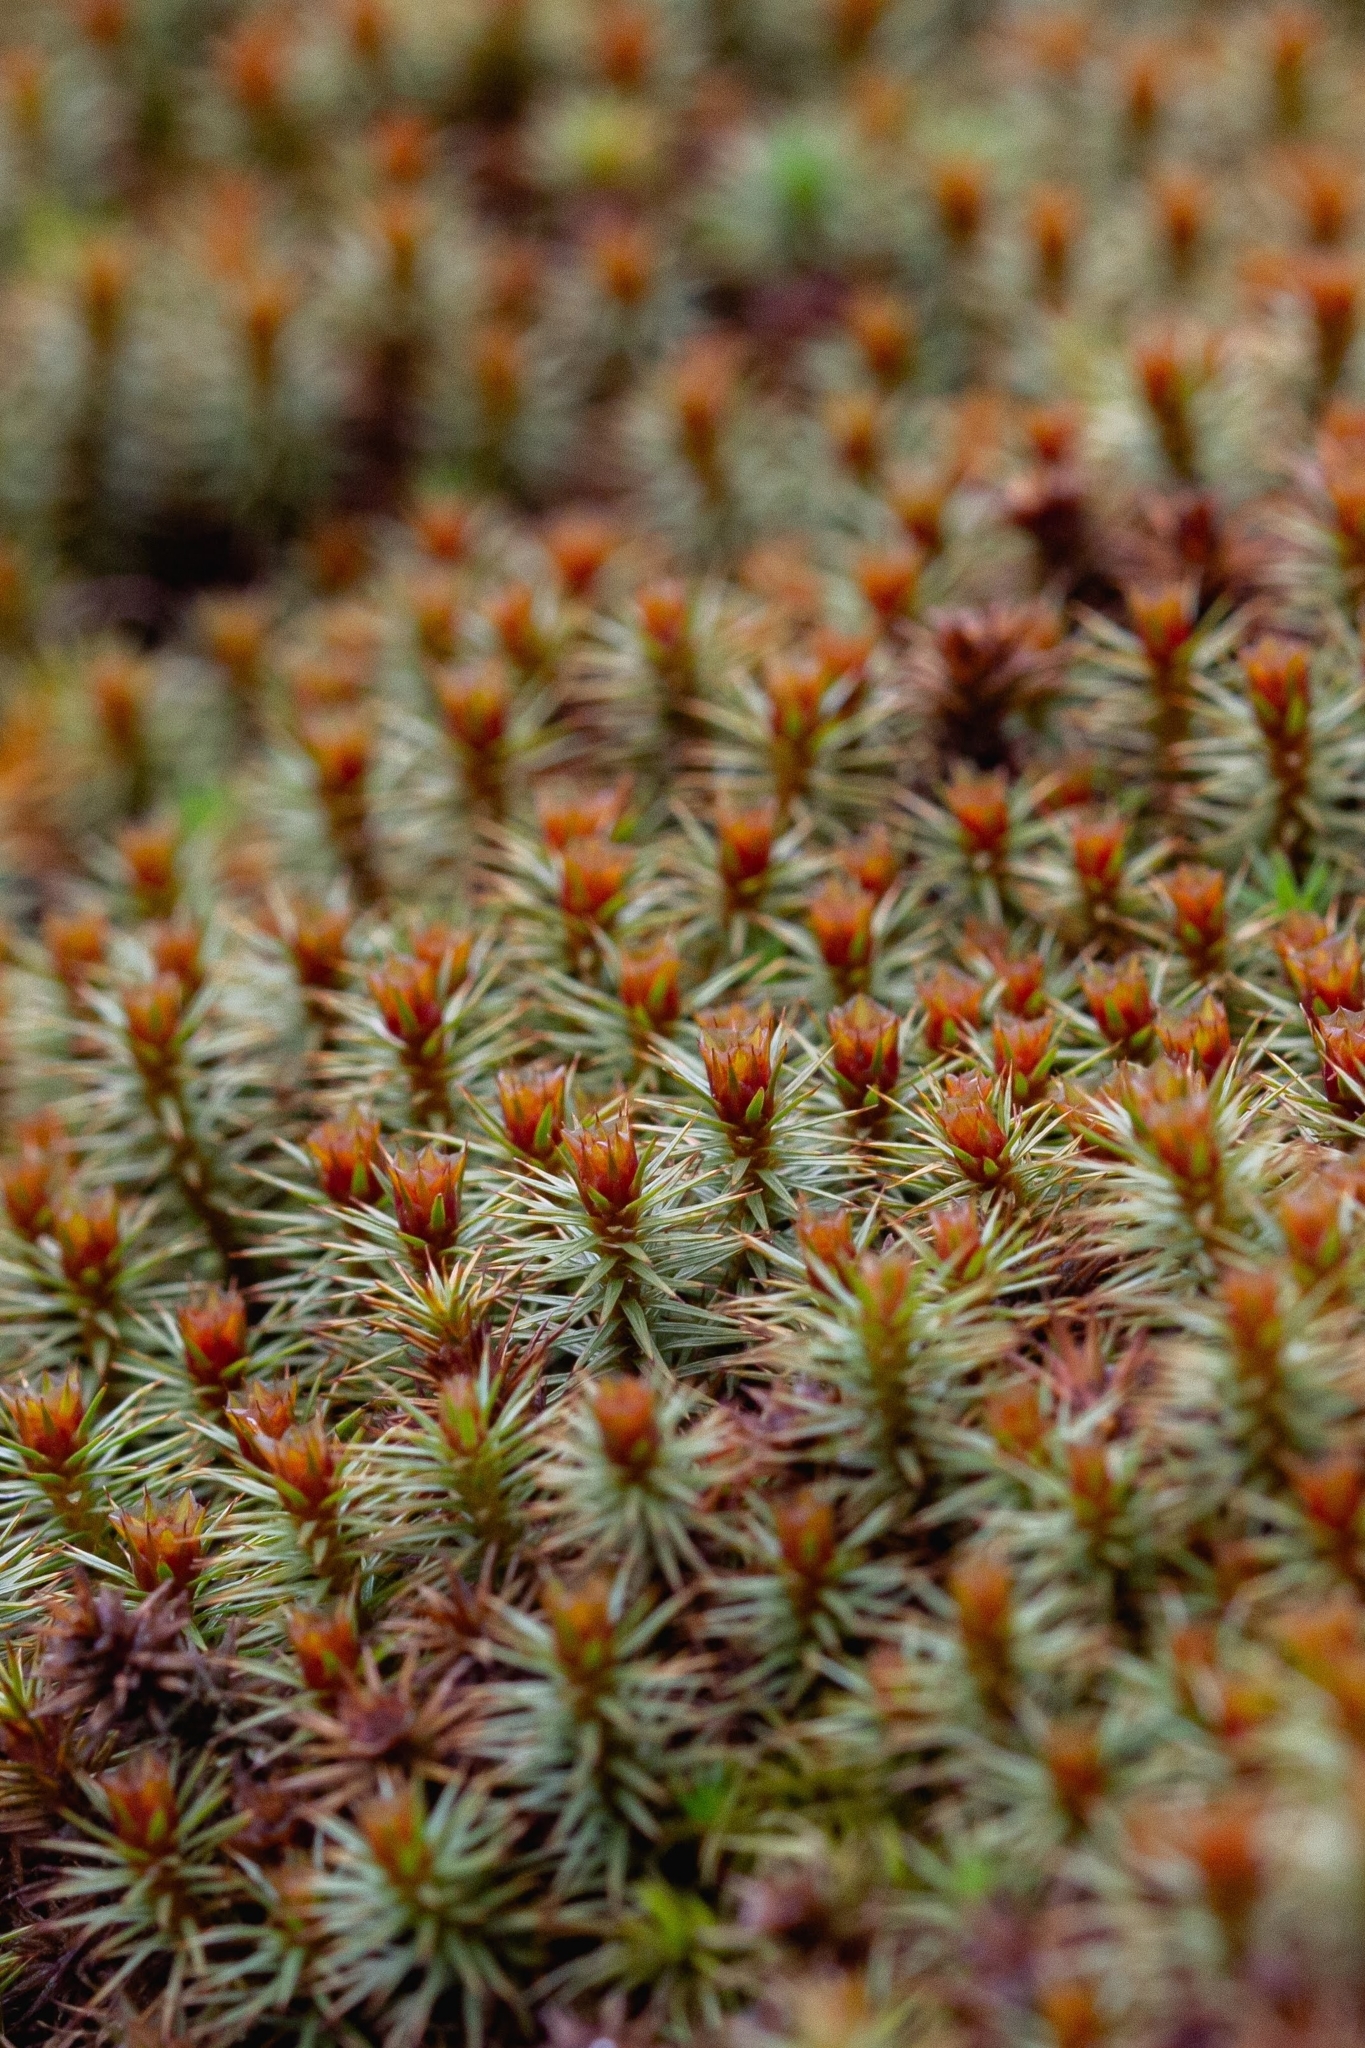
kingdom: Plantae
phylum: Bryophyta
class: Polytrichopsida
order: Polytrichales
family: Polytrichaceae
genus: Polytrichum
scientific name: Polytrichum juniperinum
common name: Juniper haircap moss
